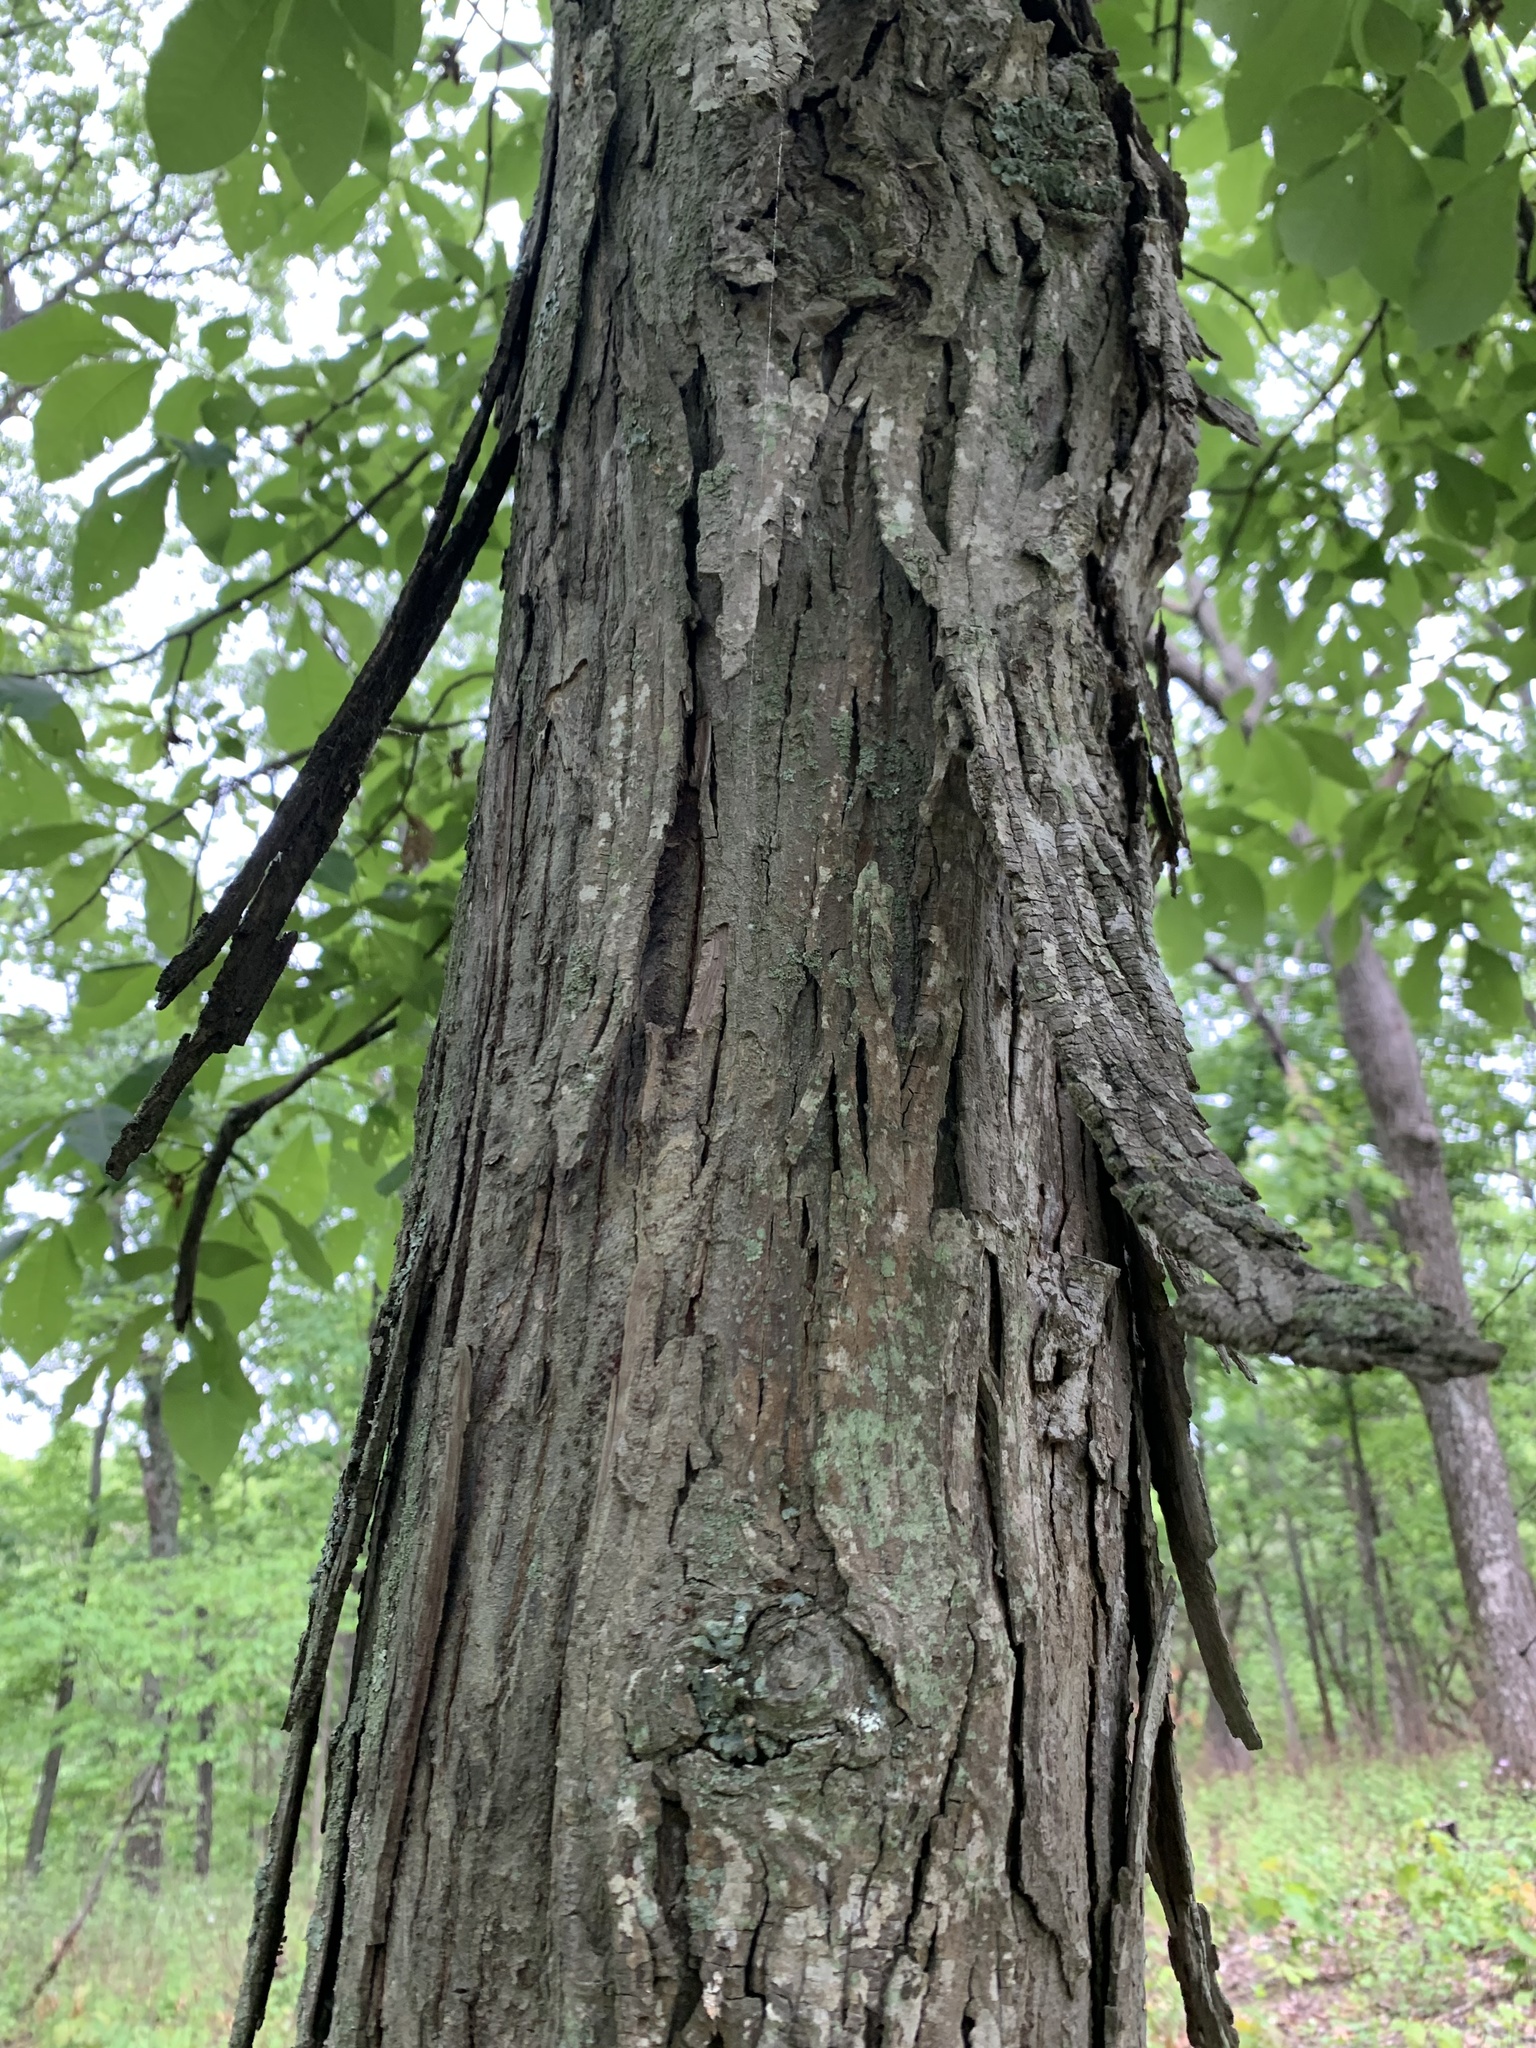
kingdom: Plantae
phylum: Tracheophyta
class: Magnoliopsida
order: Fagales
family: Juglandaceae
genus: Carya
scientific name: Carya ovata
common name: Shagbark hickory
